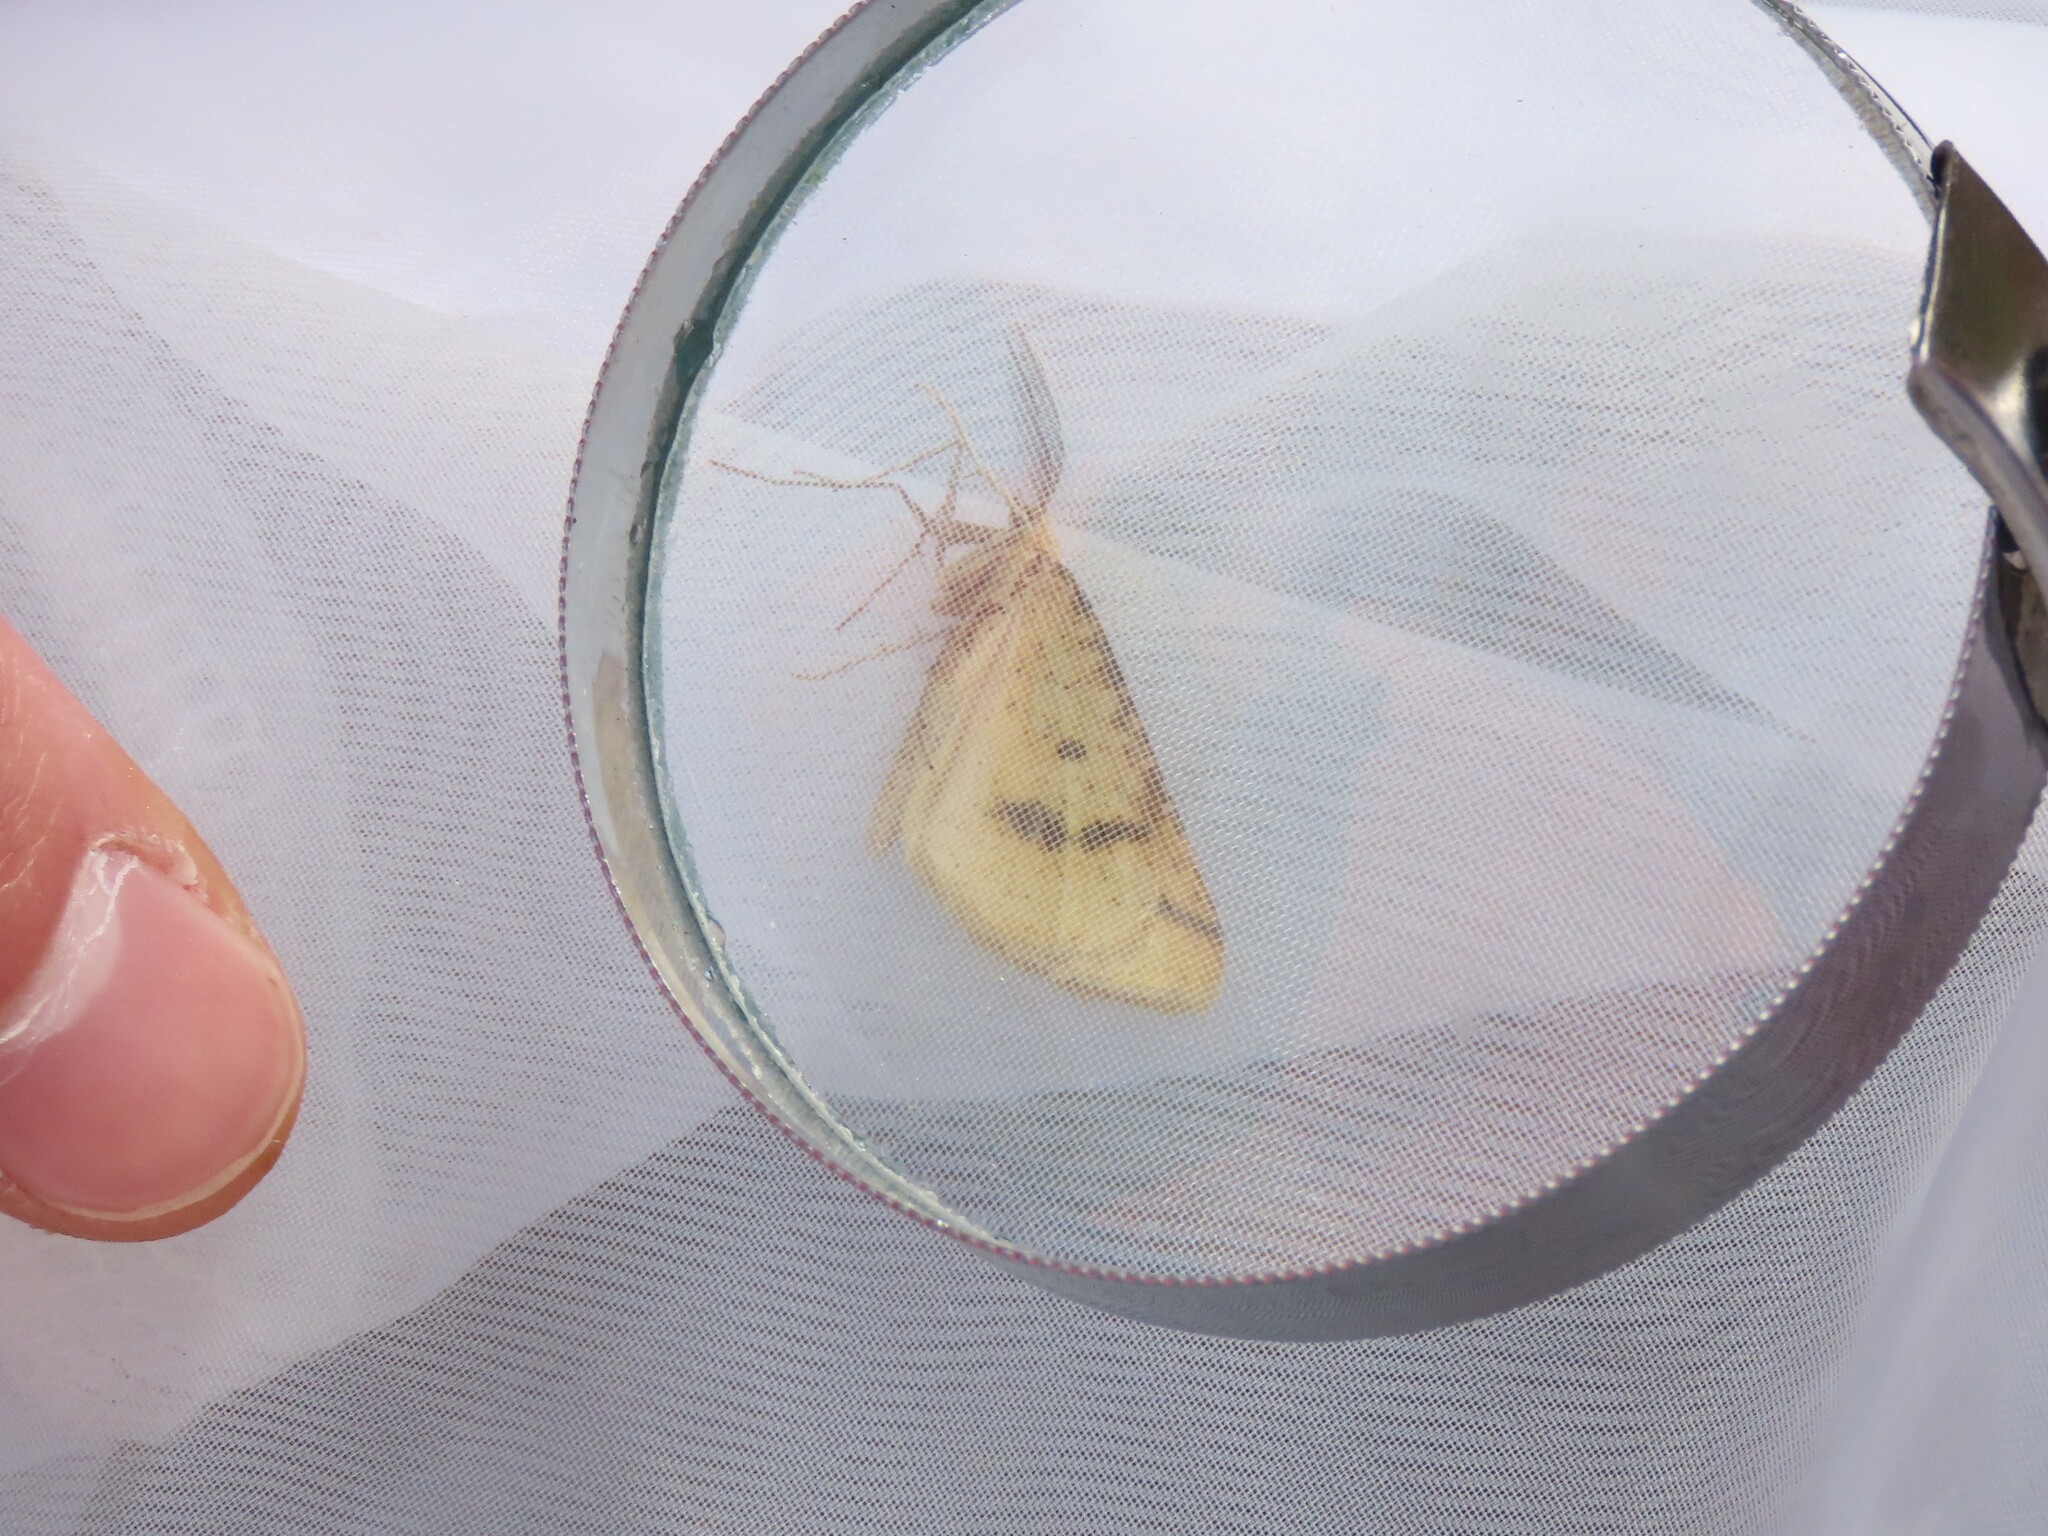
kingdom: Animalia
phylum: Arthropoda
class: Insecta
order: Lepidoptera
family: Geometridae
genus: Aspitates
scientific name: Aspitates ochrearia
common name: Yellow belle
